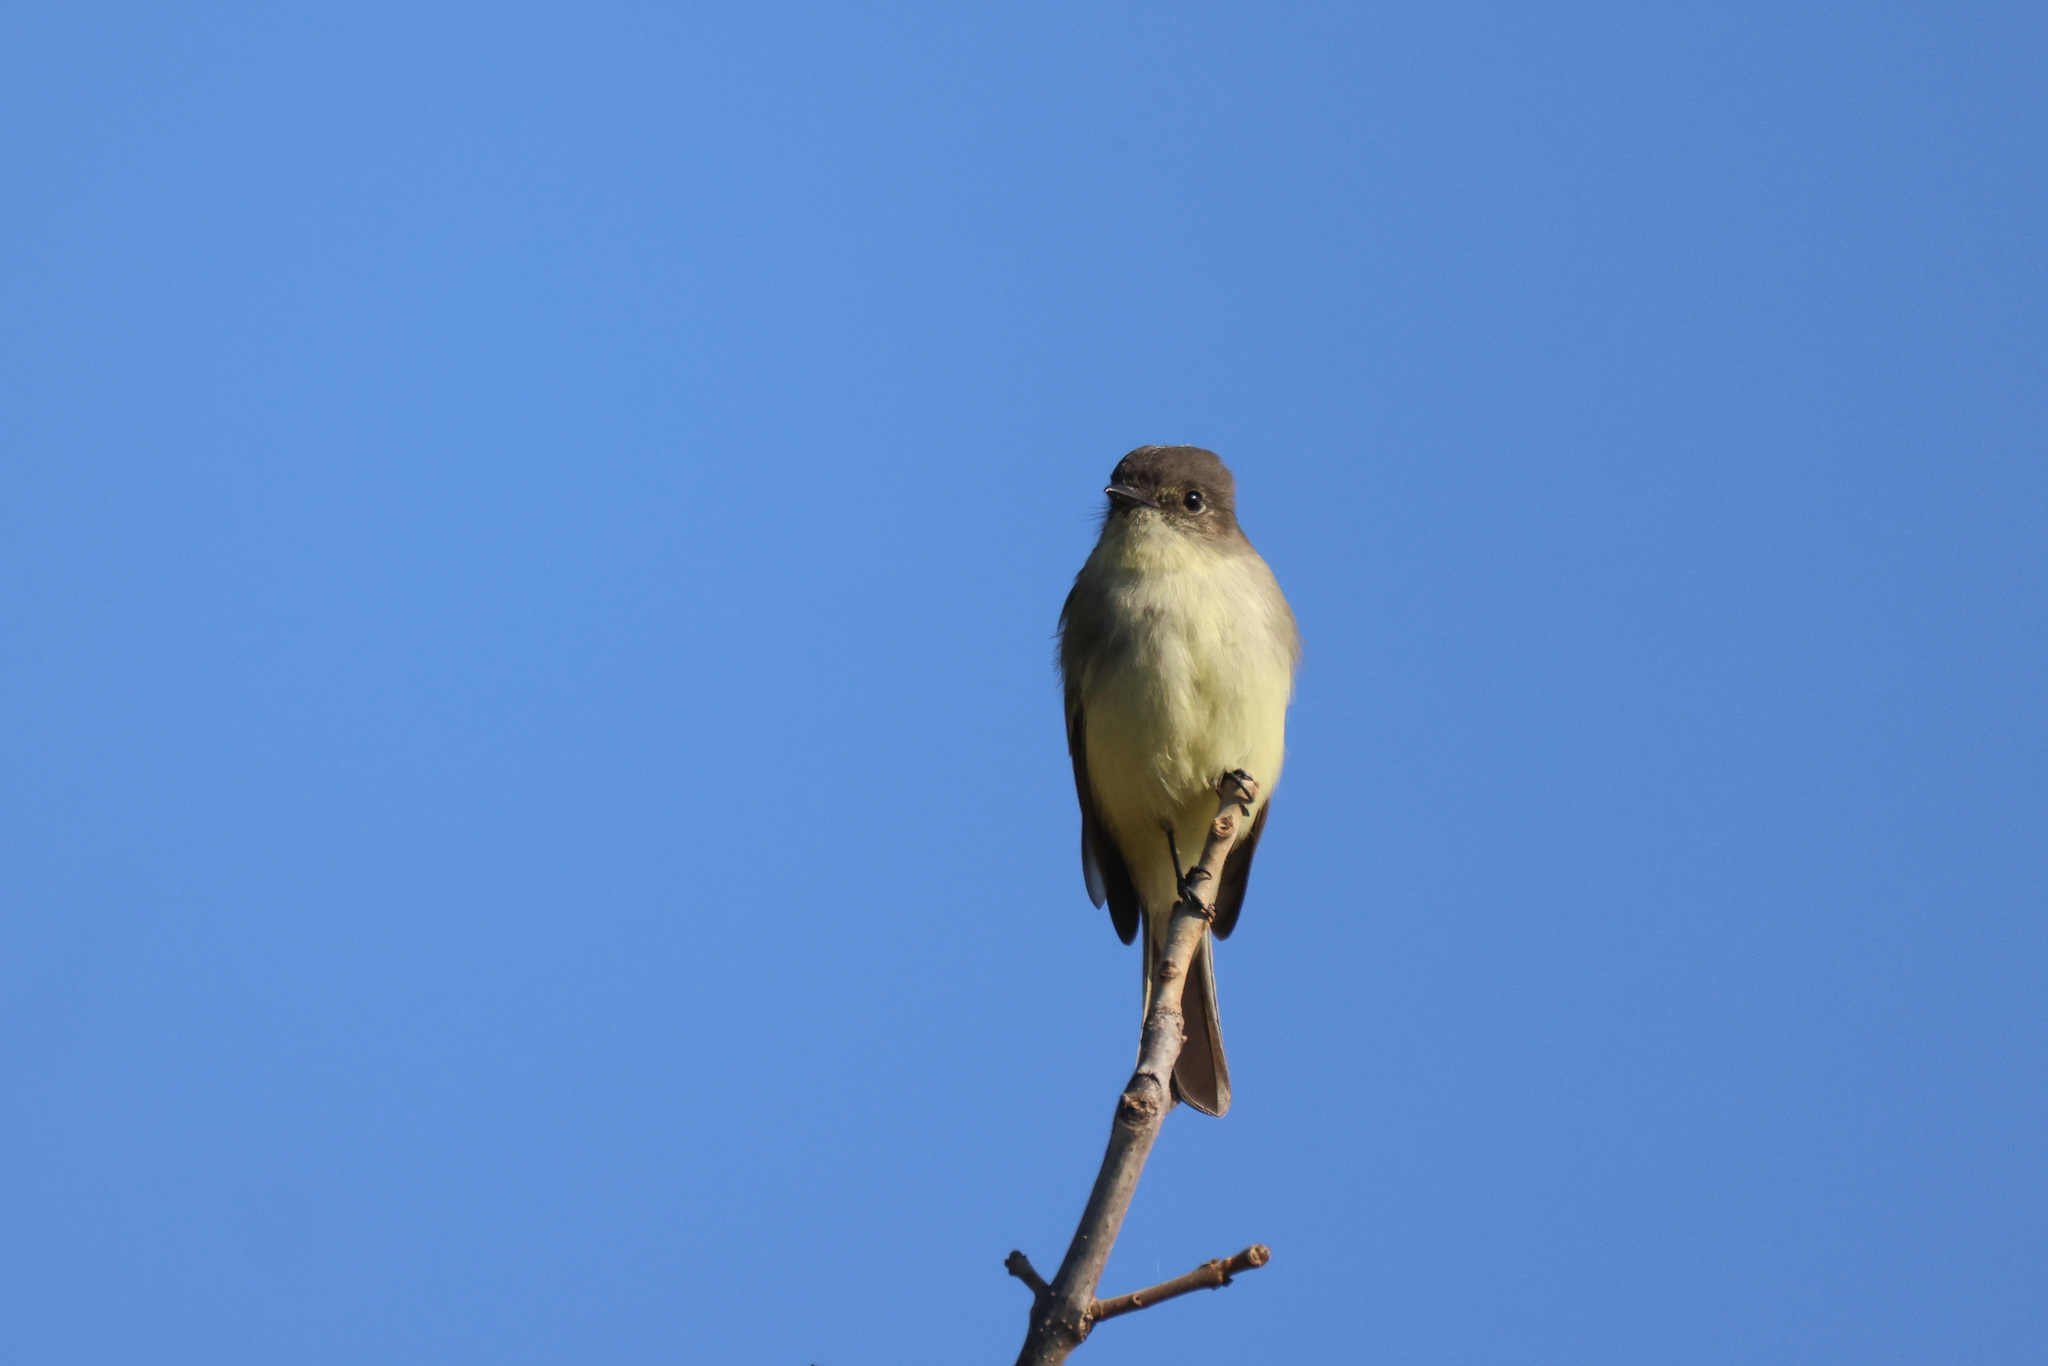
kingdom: Animalia
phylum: Chordata
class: Aves
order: Passeriformes
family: Tyrannidae
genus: Sayornis
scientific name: Sayornis phoebe
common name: Eastern phoebe
